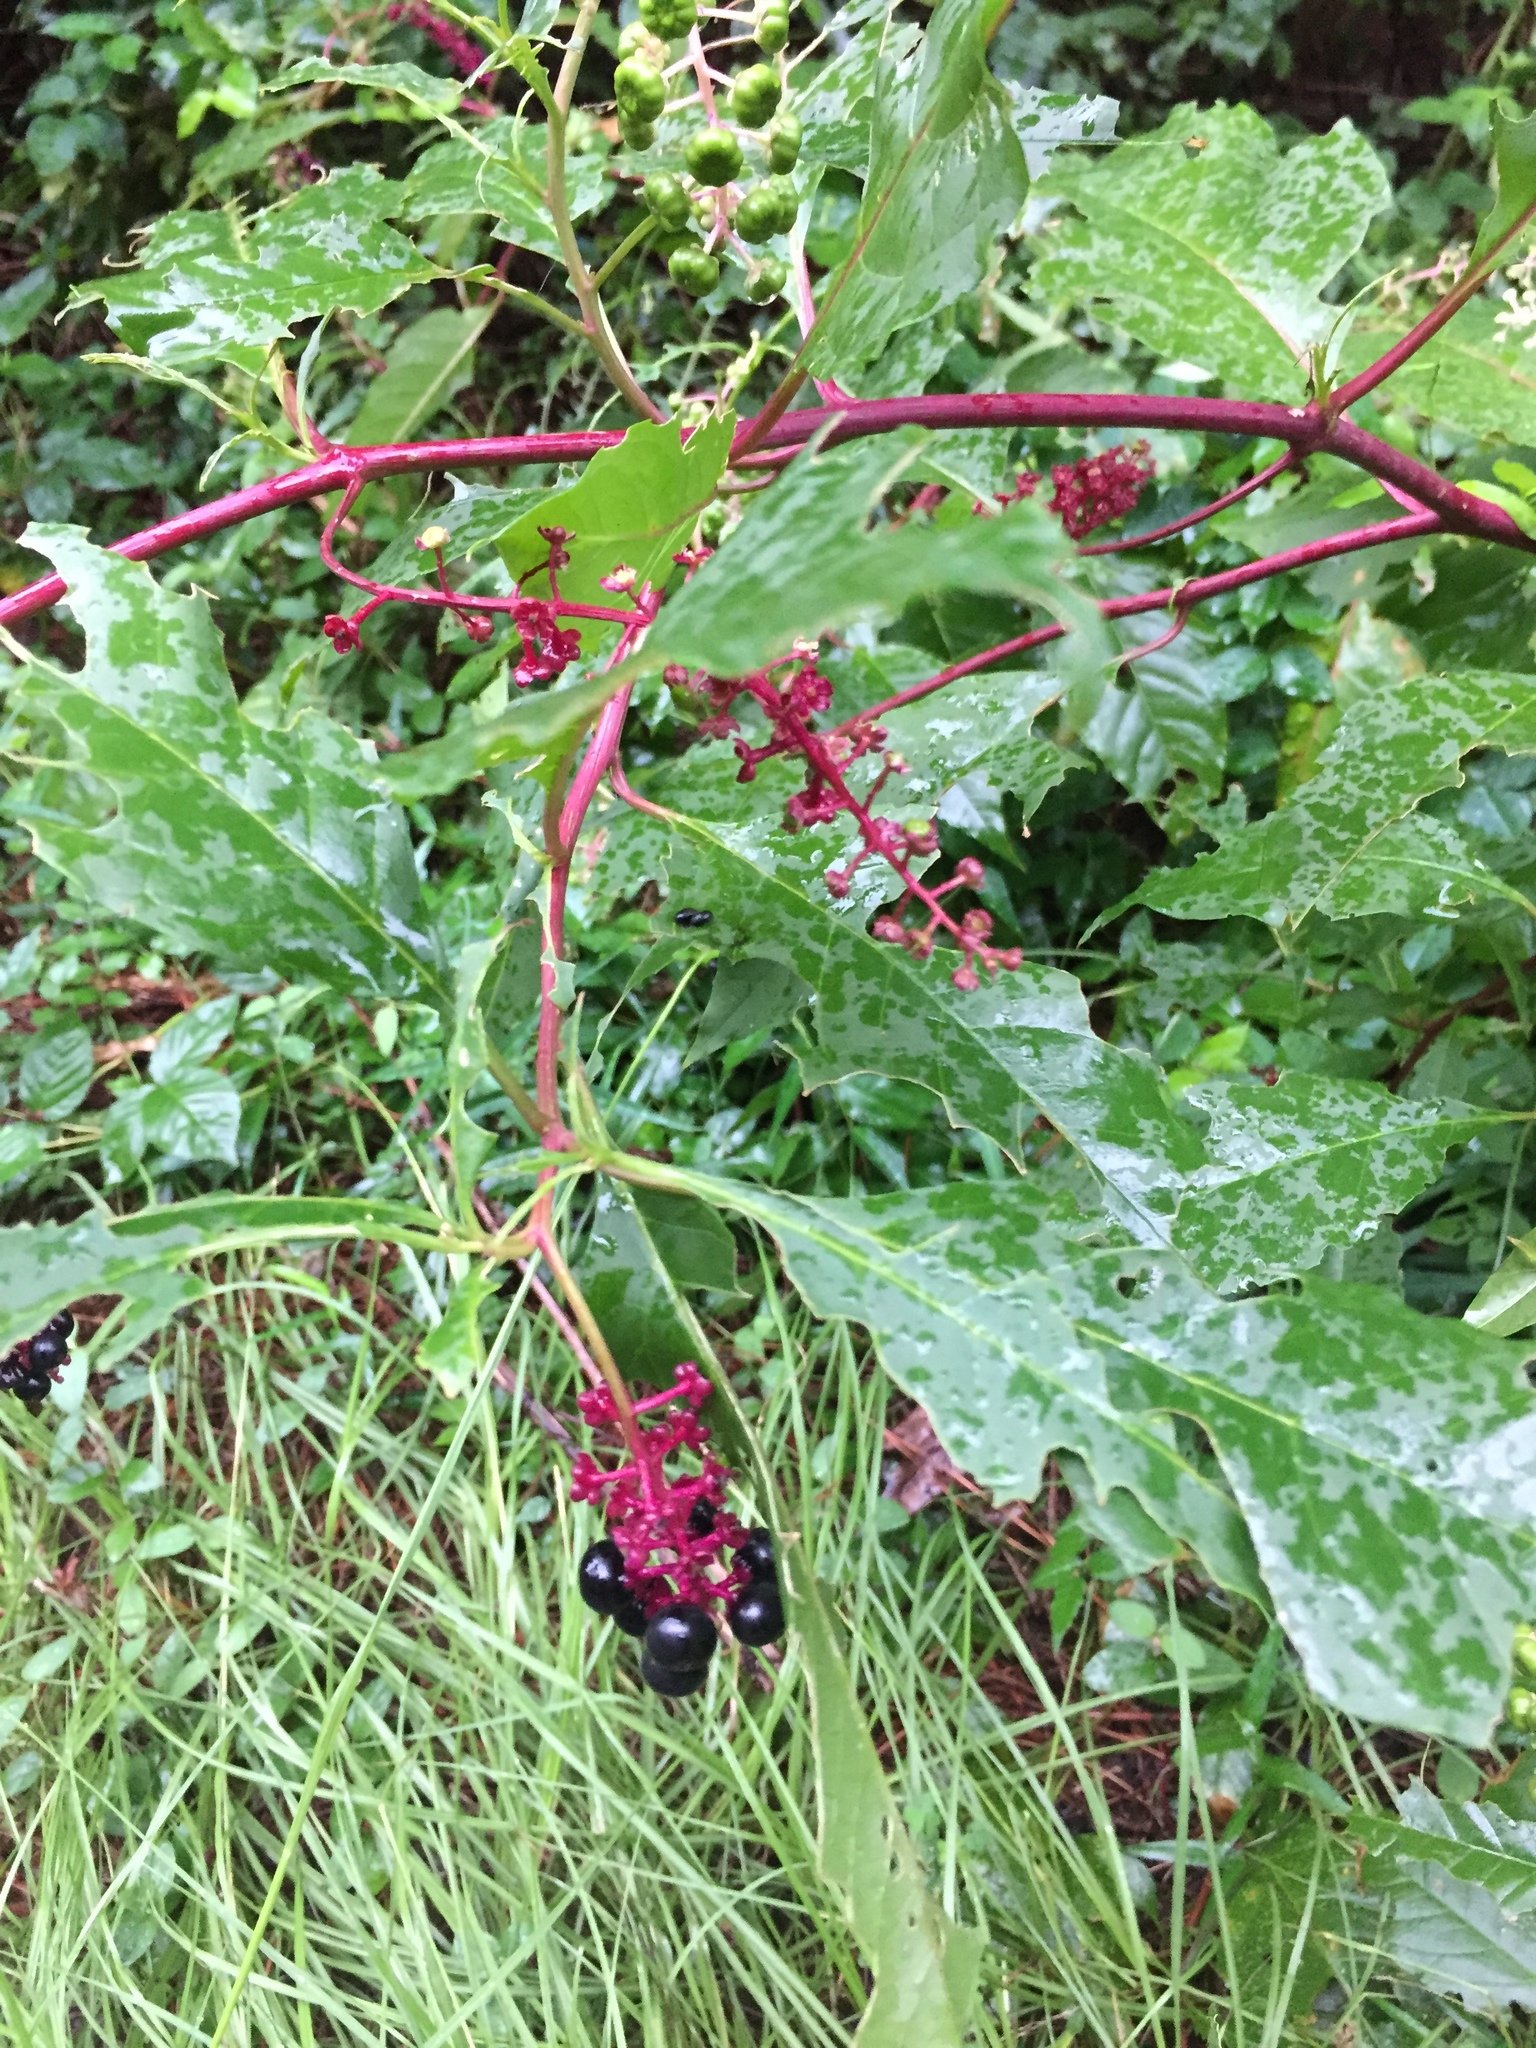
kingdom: Plantae
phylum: Tracheophyta
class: Magnoliopsida
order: Caryophyllales
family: Phytolaccaceae
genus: Phytolacca
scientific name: Phytolacca americana
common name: American pokeweed
